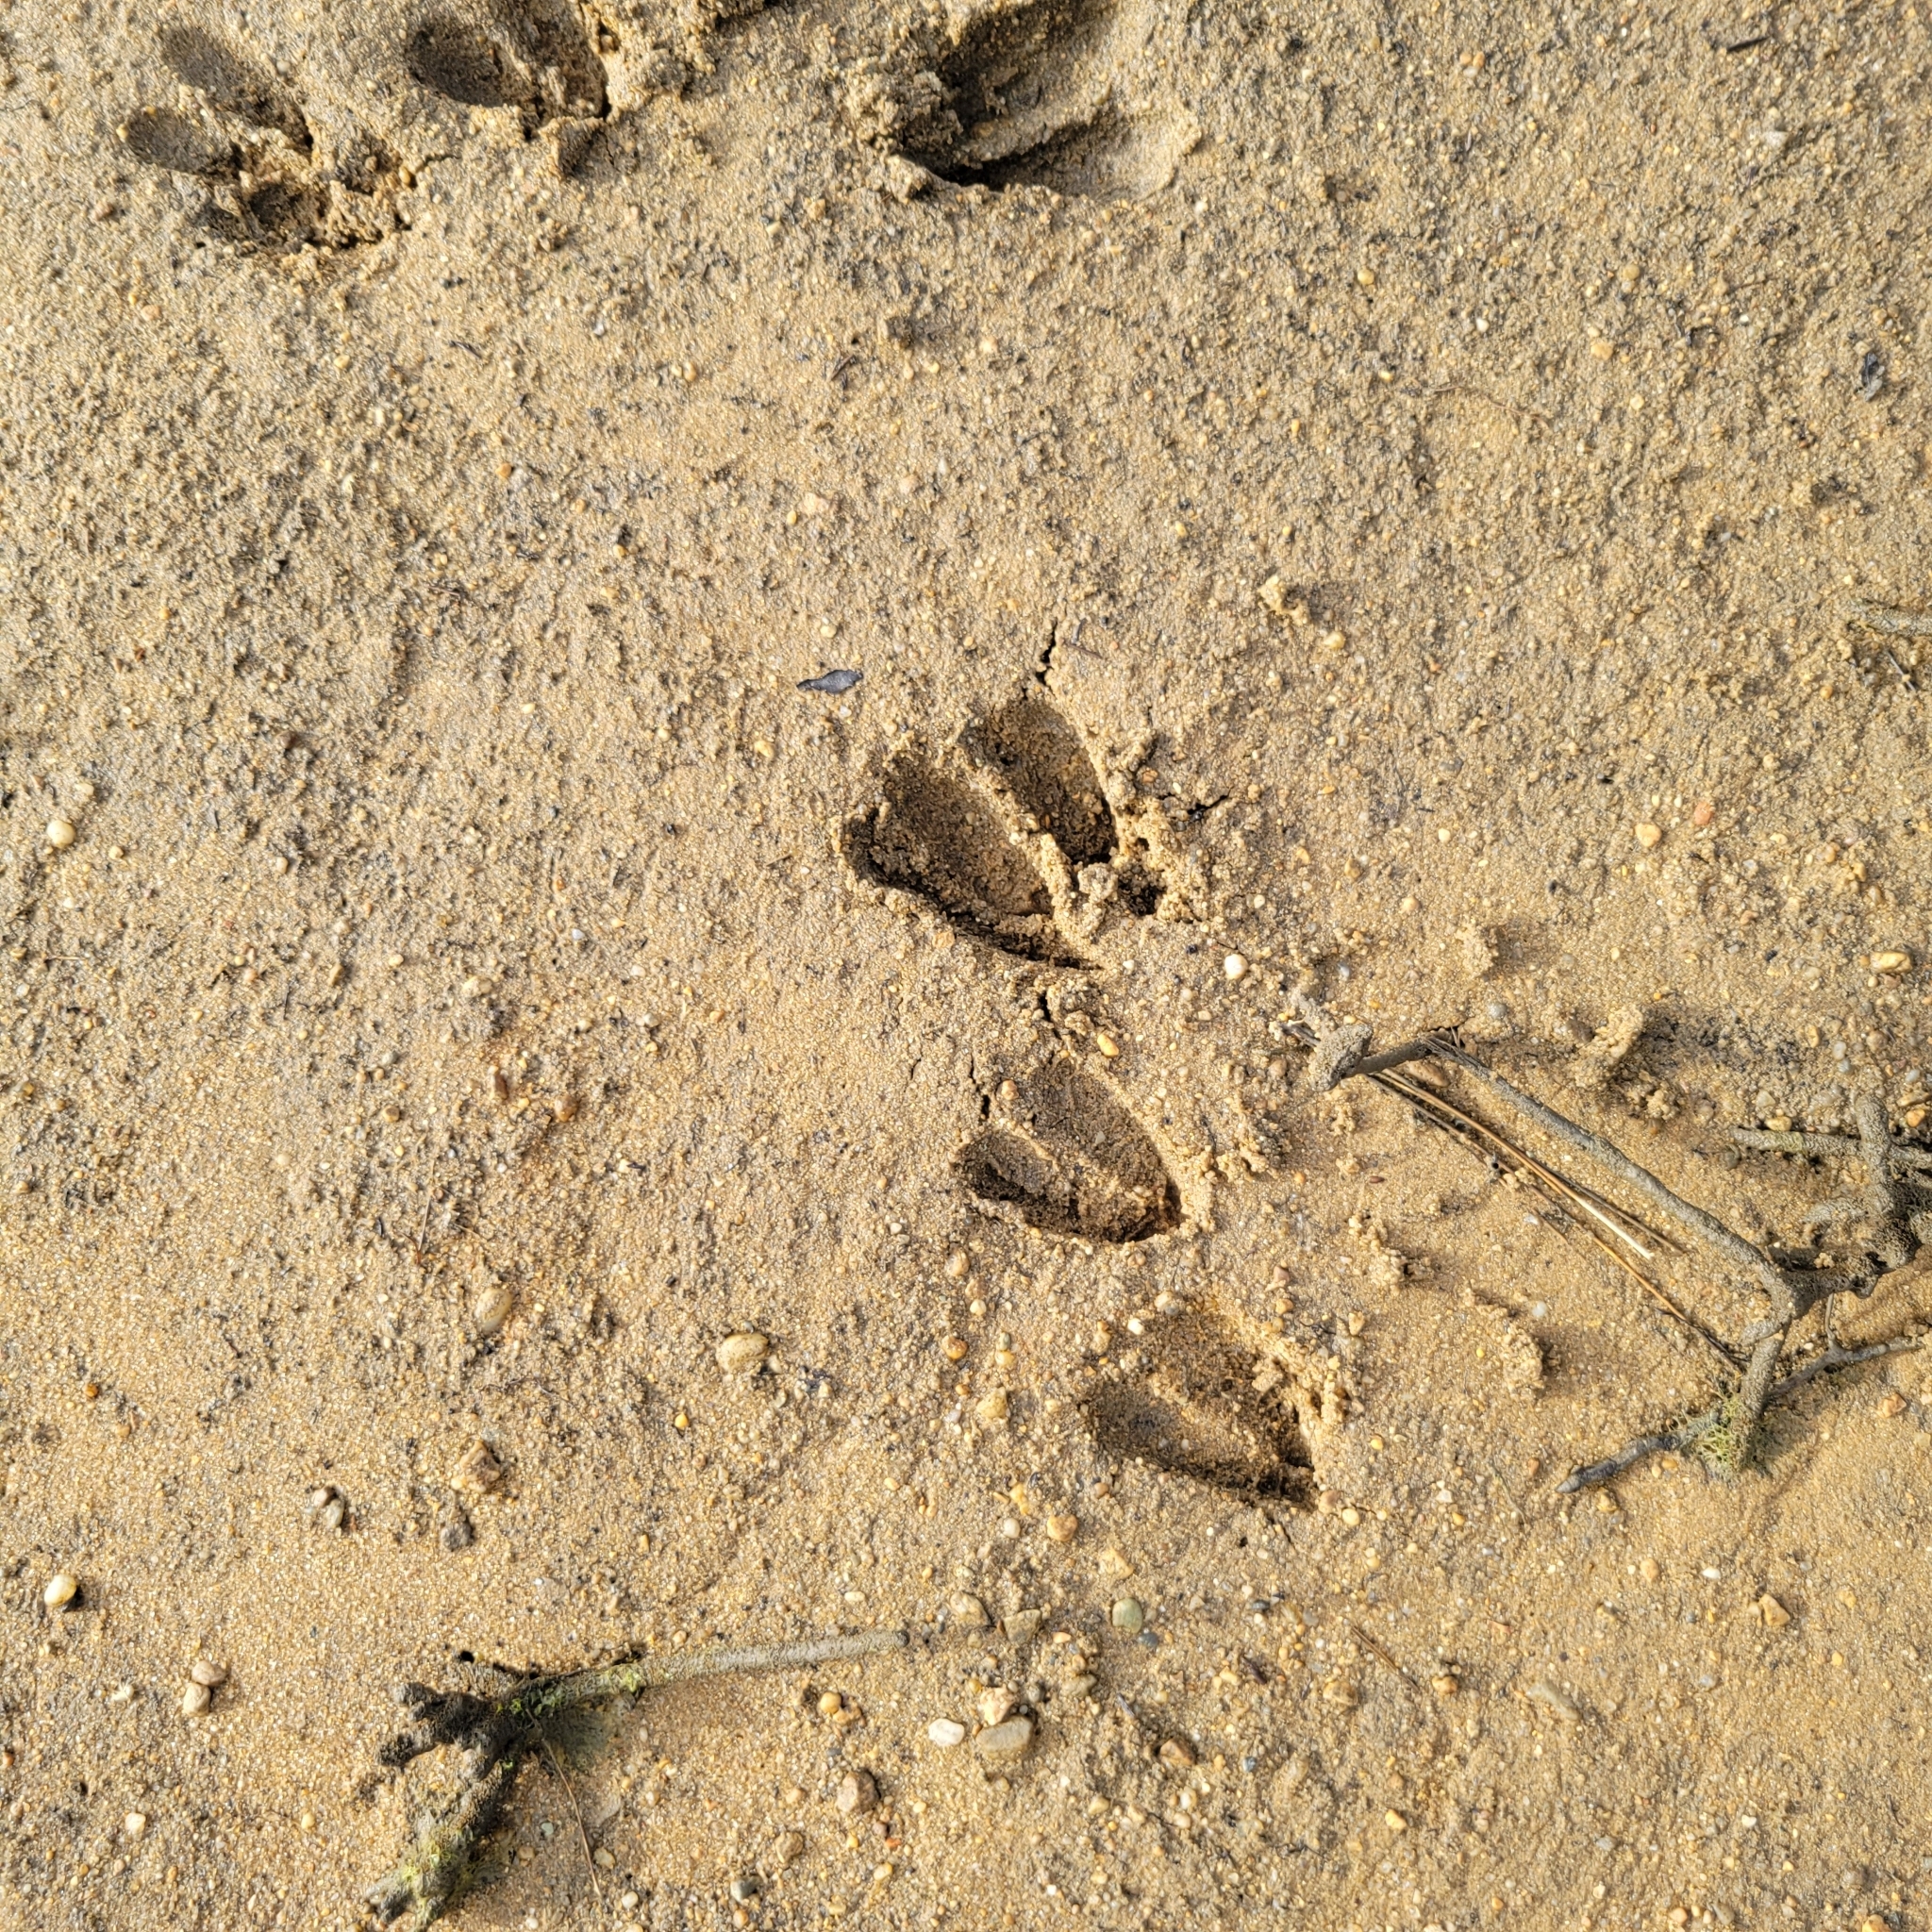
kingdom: Animalia
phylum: Chordata
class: Mammalia
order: Artiodactyla
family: Cervidae
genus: Odocoileus
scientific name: Odocoileus virginianus
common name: White-tailed deer
